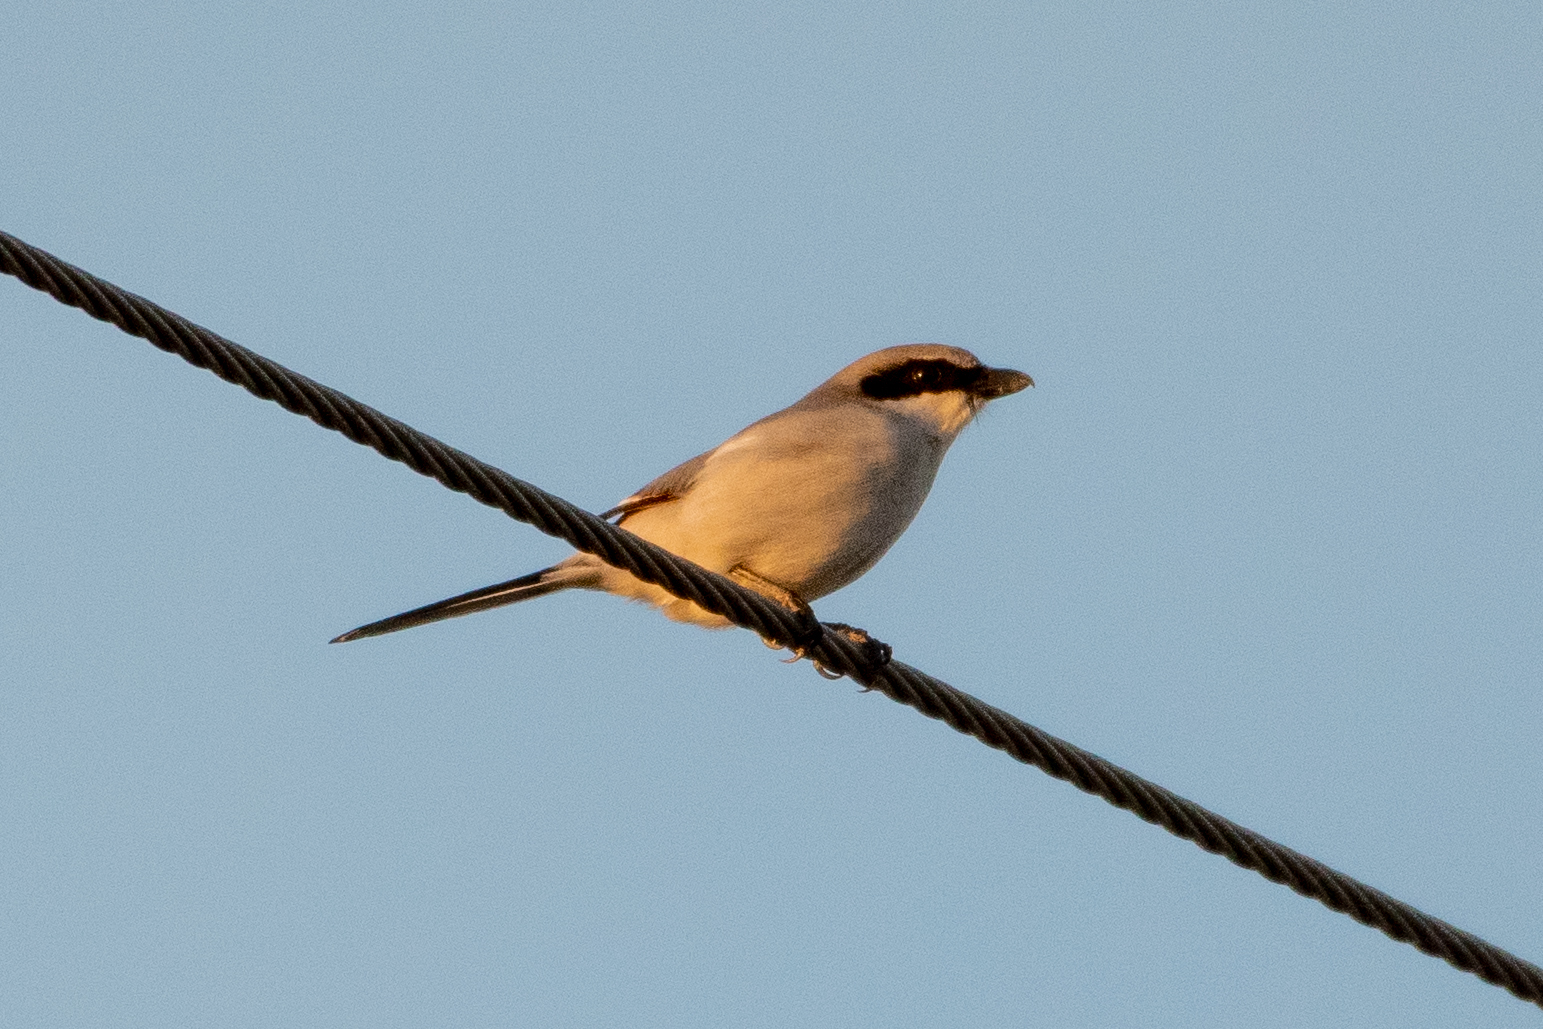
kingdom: Animalia
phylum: Chordata
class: Aves
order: Passeriformes
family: Laniidae
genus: Lanius
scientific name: Lanius ludovicianus
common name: Loggerhead shrike
